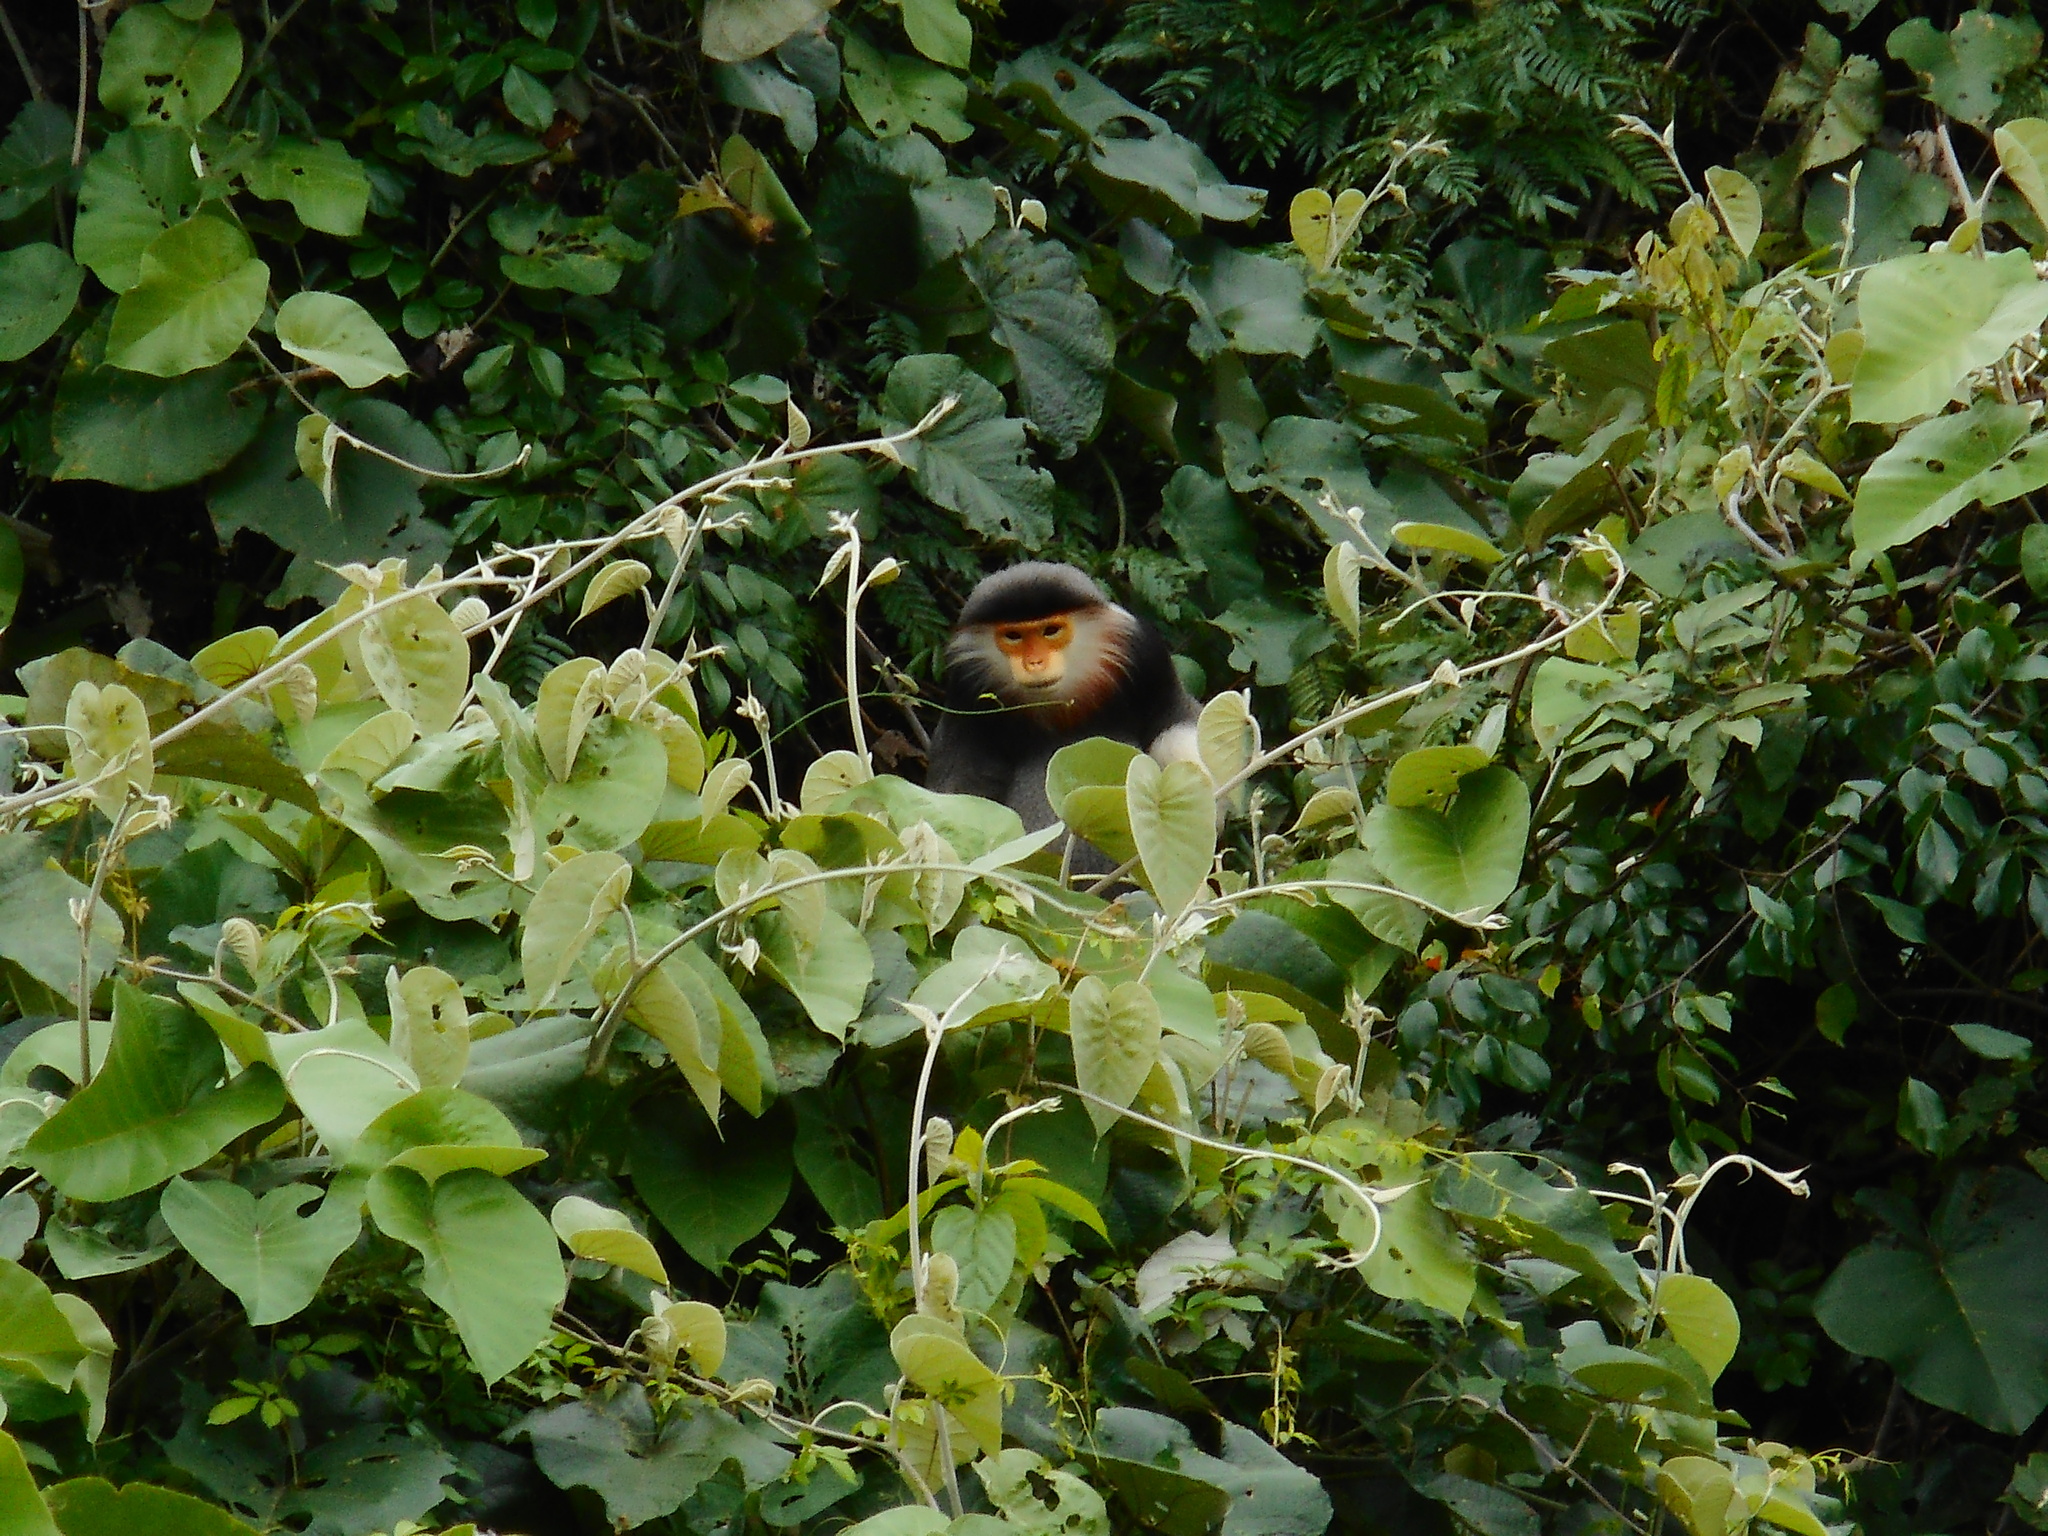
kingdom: Animalia
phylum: Chordata
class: Mammalia
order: Primates
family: Cercopithecidae
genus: Pygathrix
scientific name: Pygathrix nemaeus
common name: Red-shanked douc
